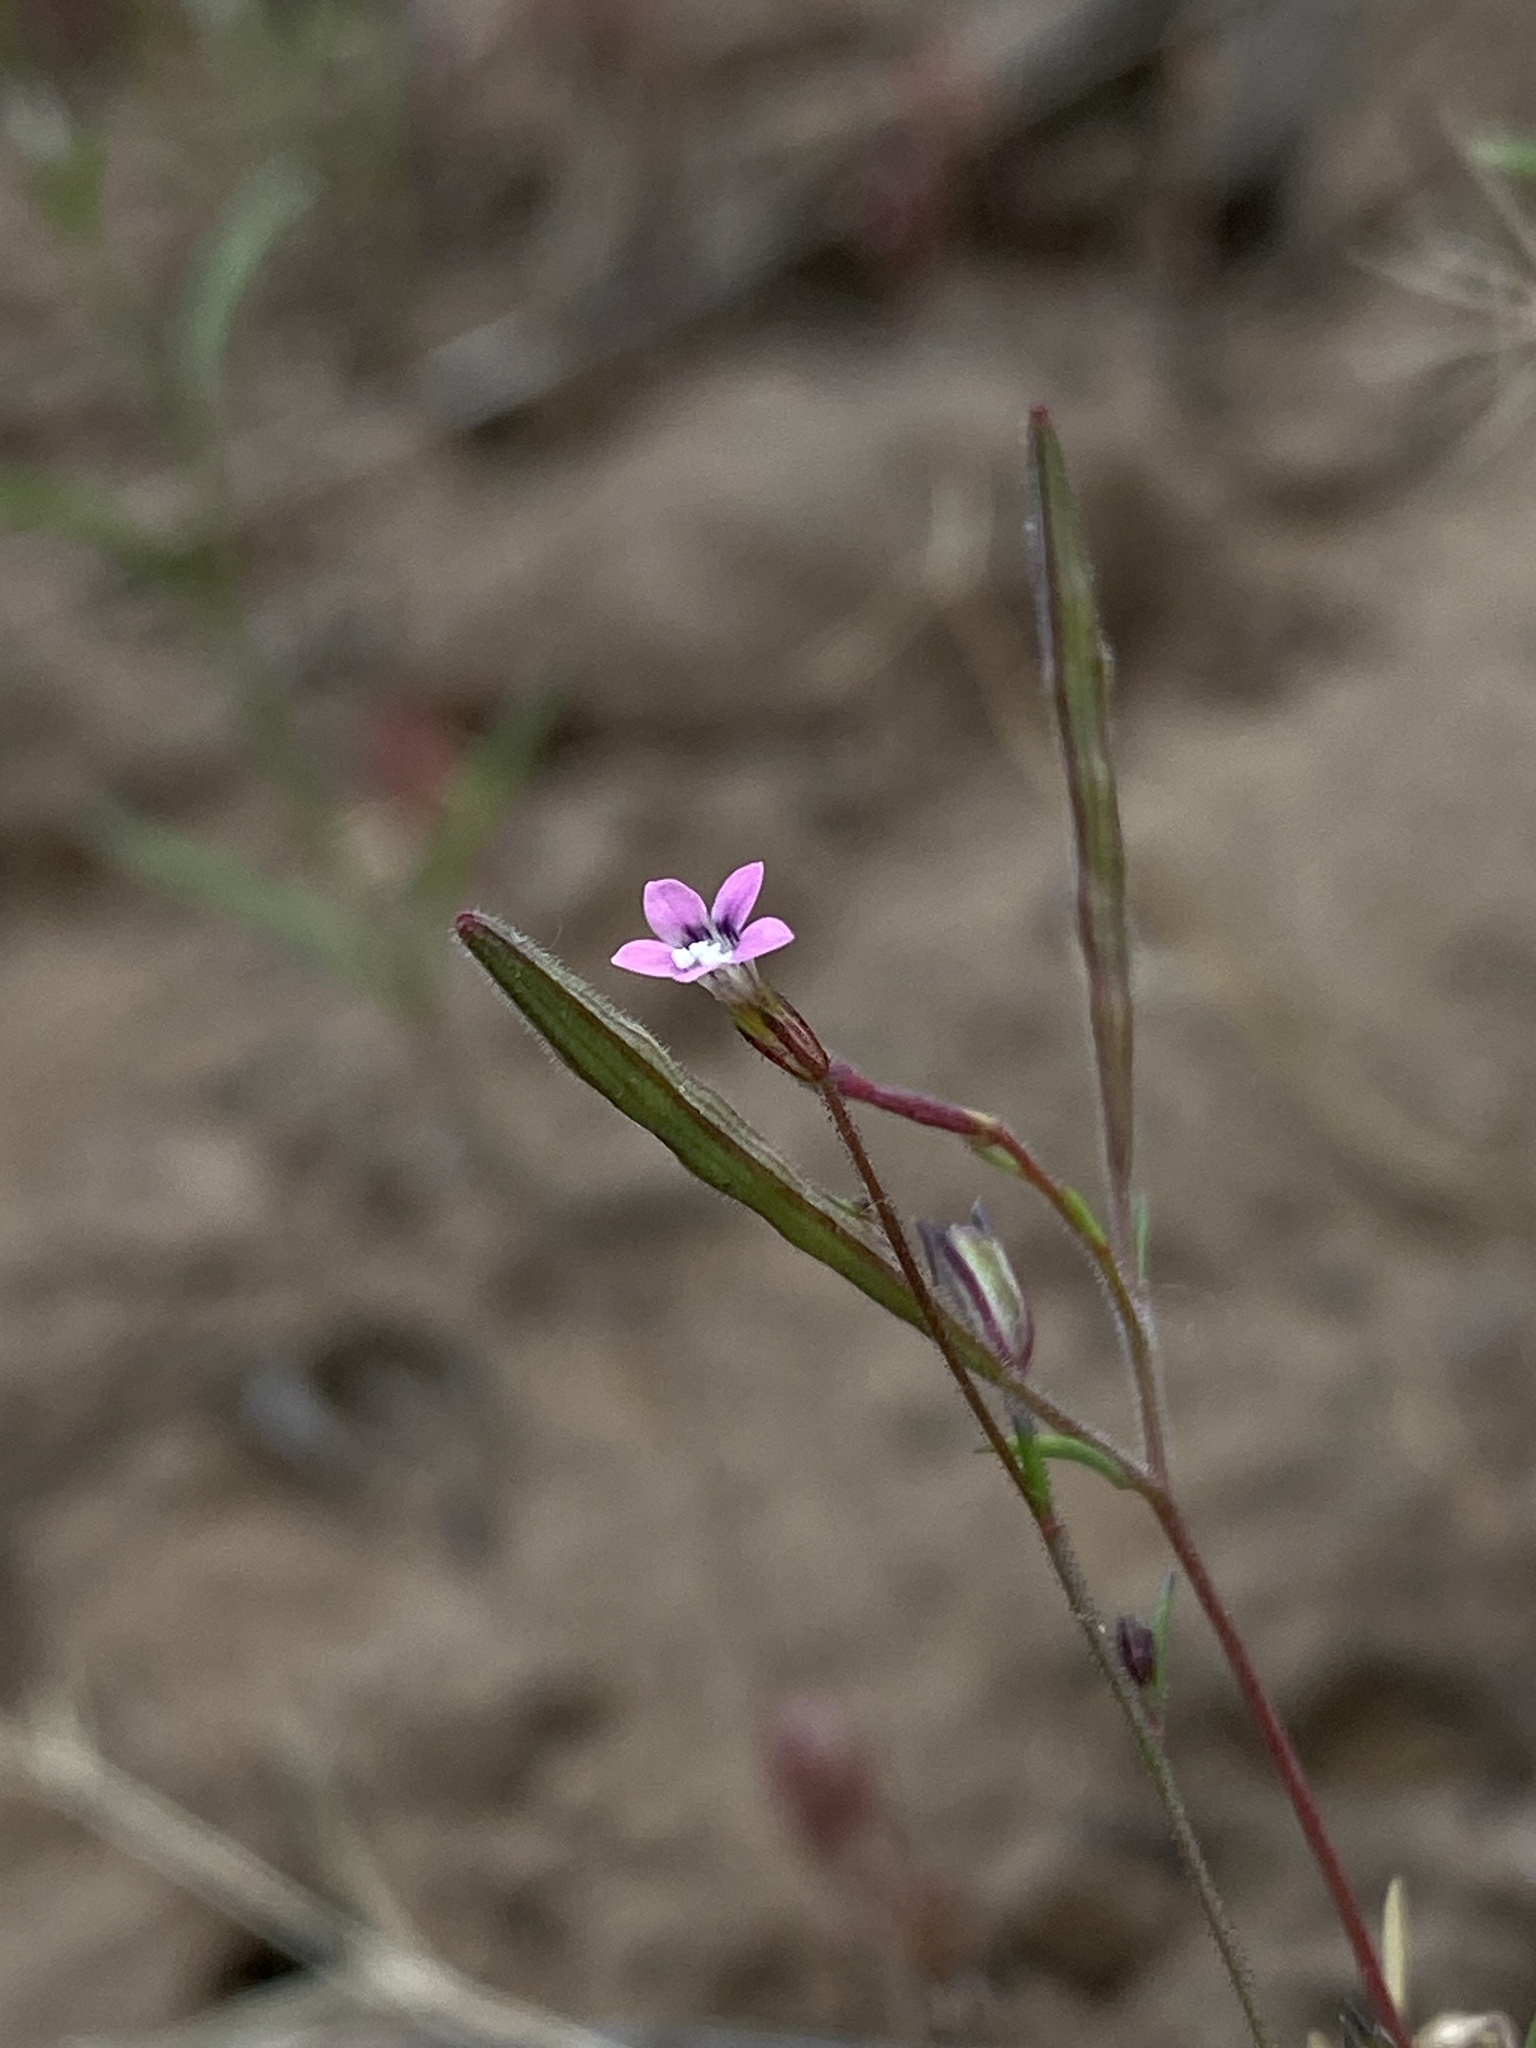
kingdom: Plantae
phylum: Tracheophyta
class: Magnoliopsida
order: Ericales
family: Polemoniaceae
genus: Navarretia
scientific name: Navarretia sinistra
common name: Alva day's pincushionplant
